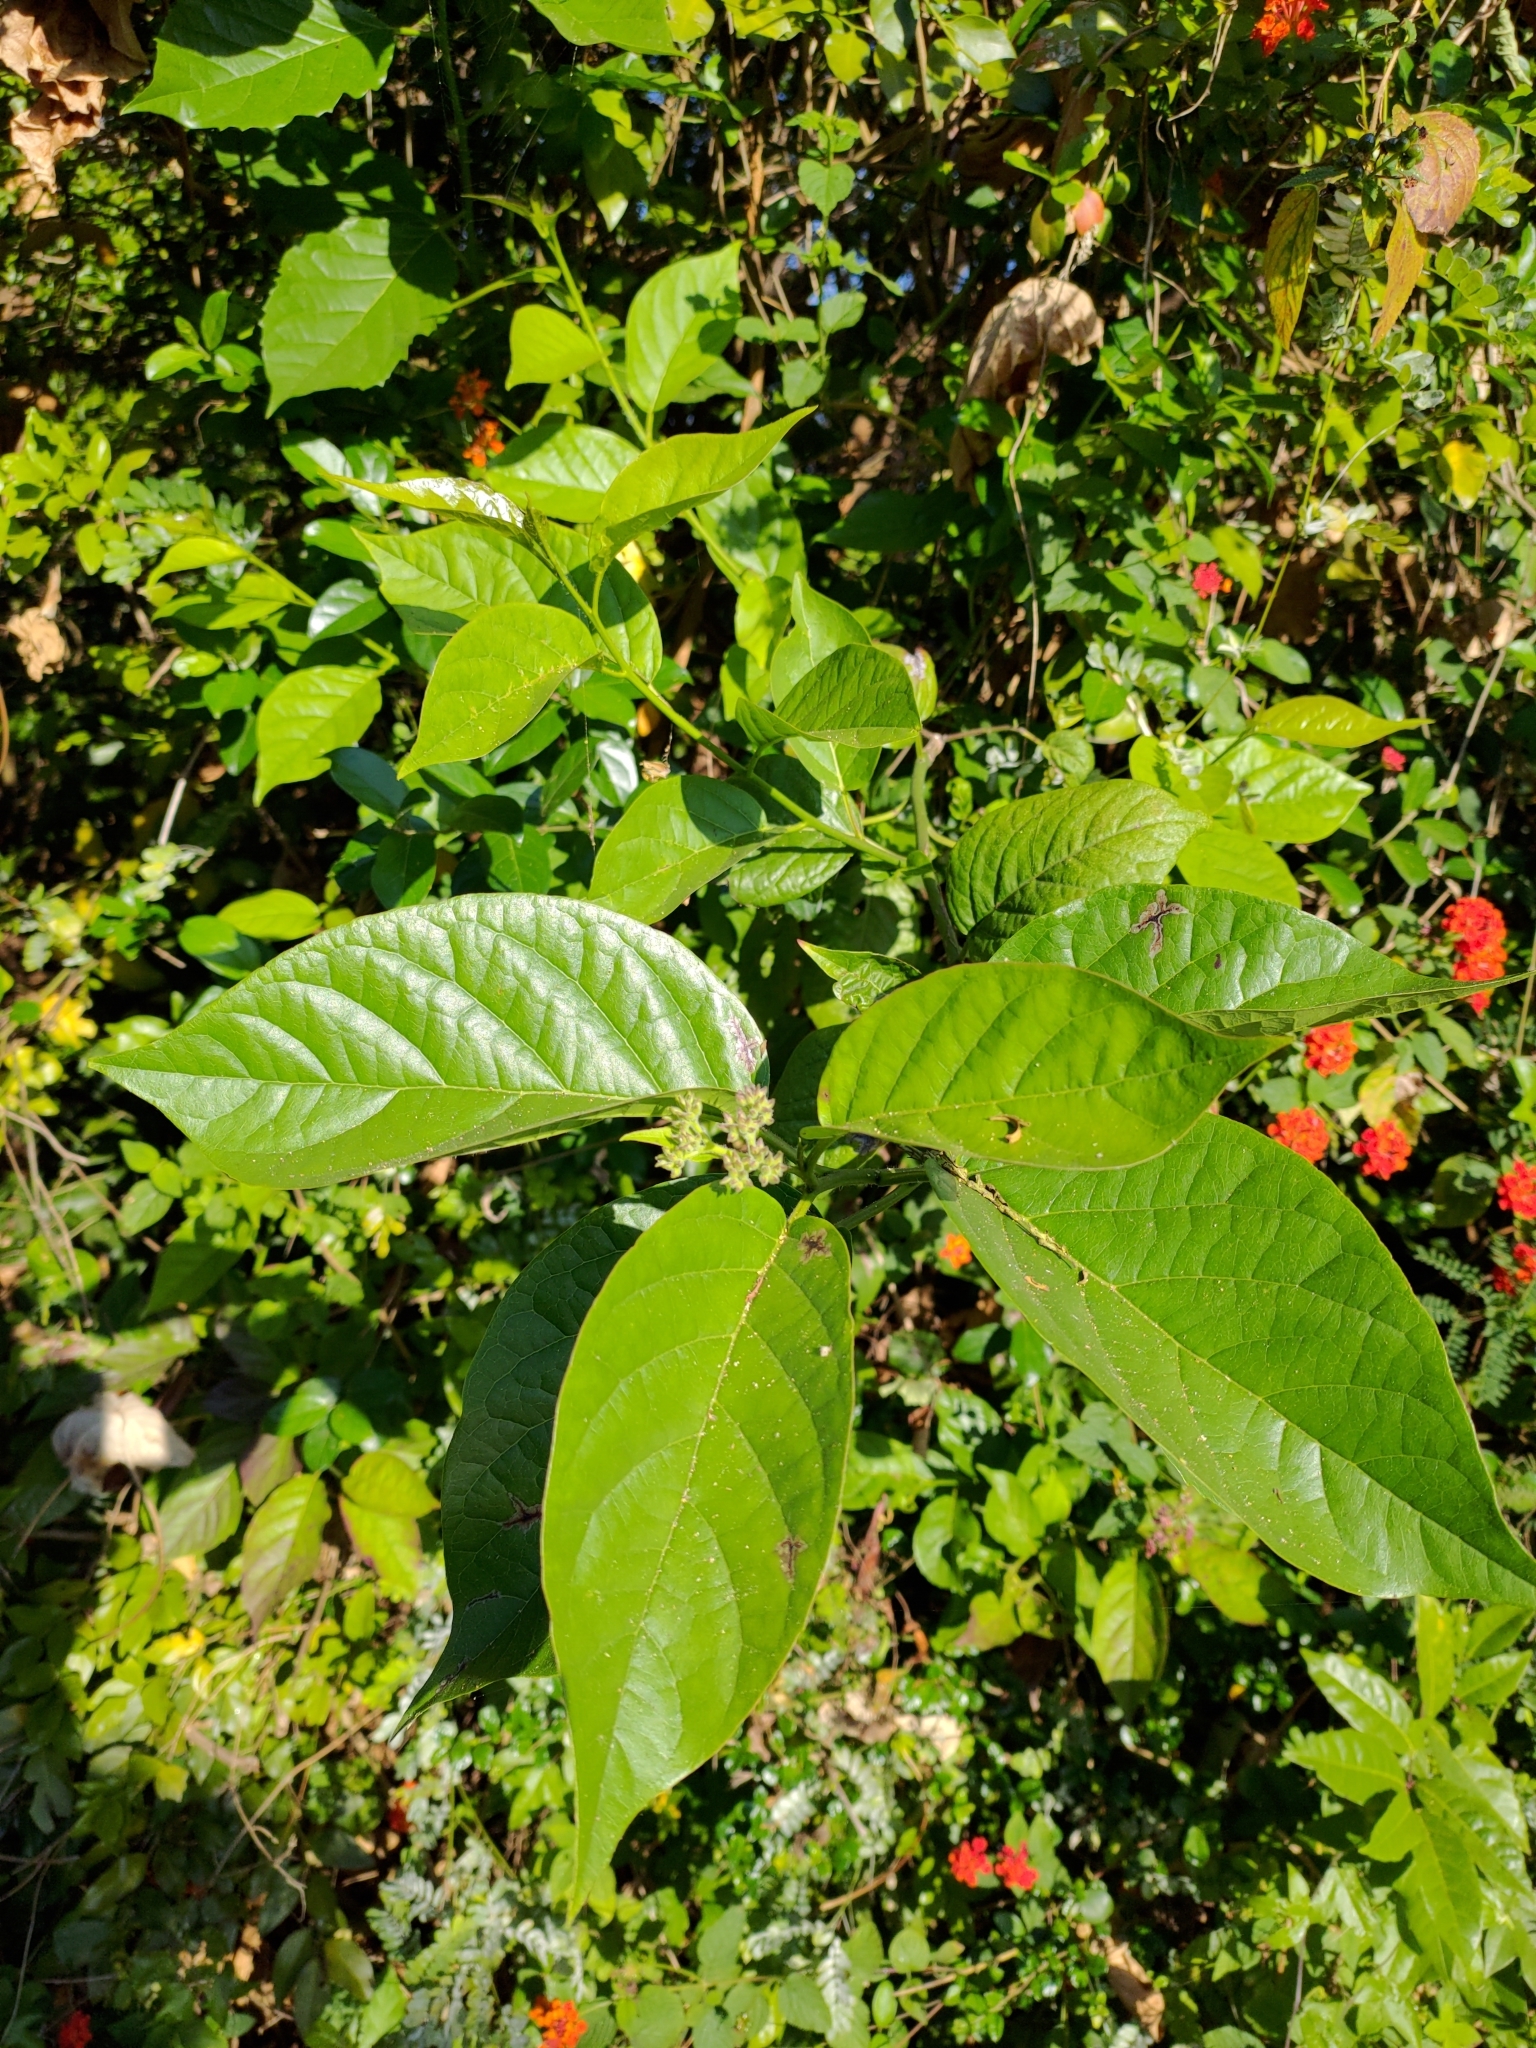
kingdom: Plantae
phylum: Tracheophyta
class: Magnoliopsida
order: Boraginales
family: Ehretiaceae
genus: Ehretia
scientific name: Ehretia resinosa
